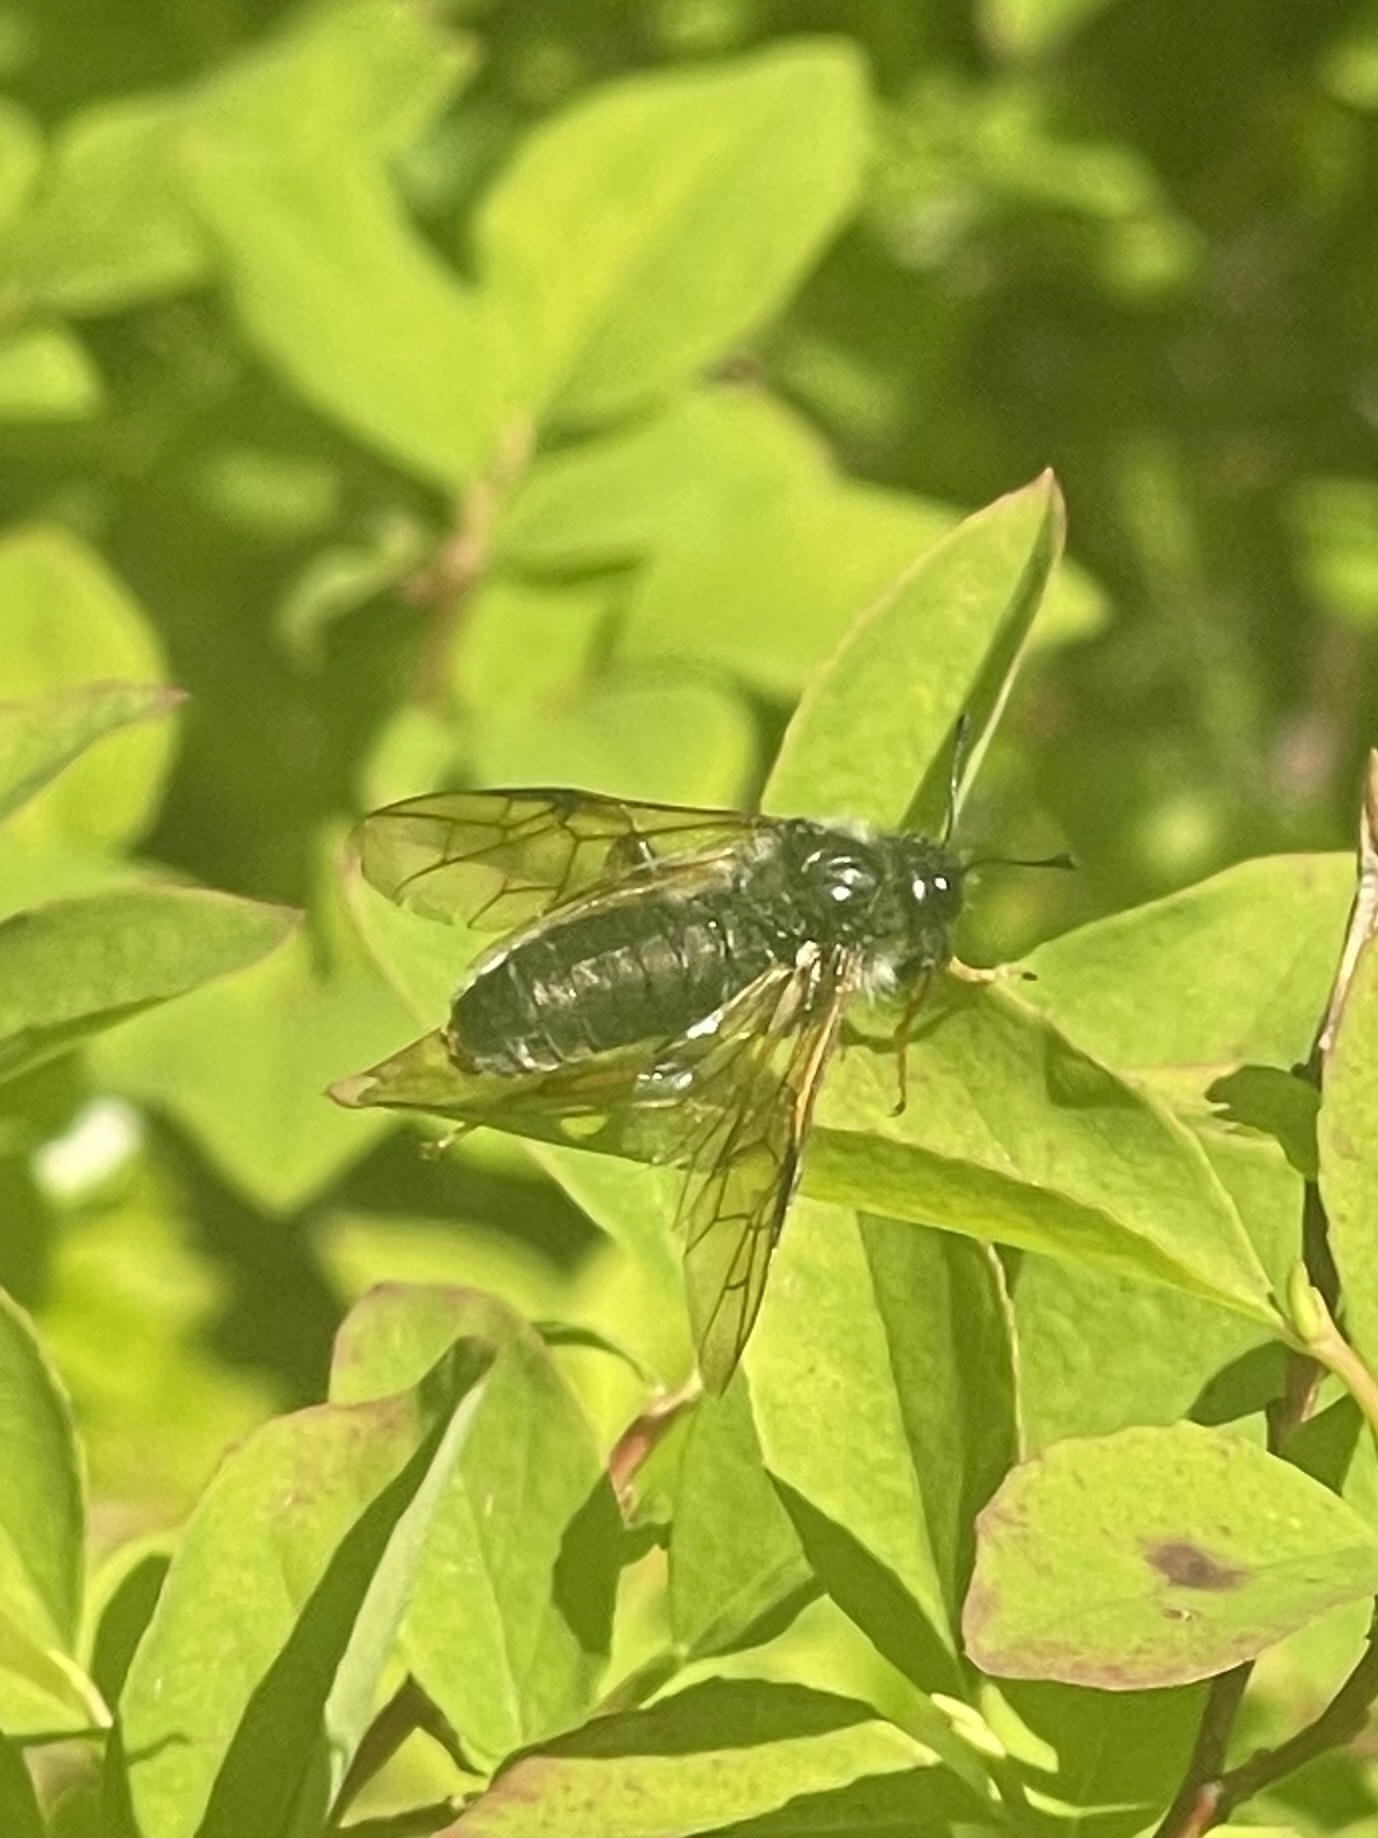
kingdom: Animalia
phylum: Arthropoda
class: Insecta
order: Hymenoptera
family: Cimbicidae
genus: Trichiosoma
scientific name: Trichiosoma triangulum
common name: Giant birch sawfly
